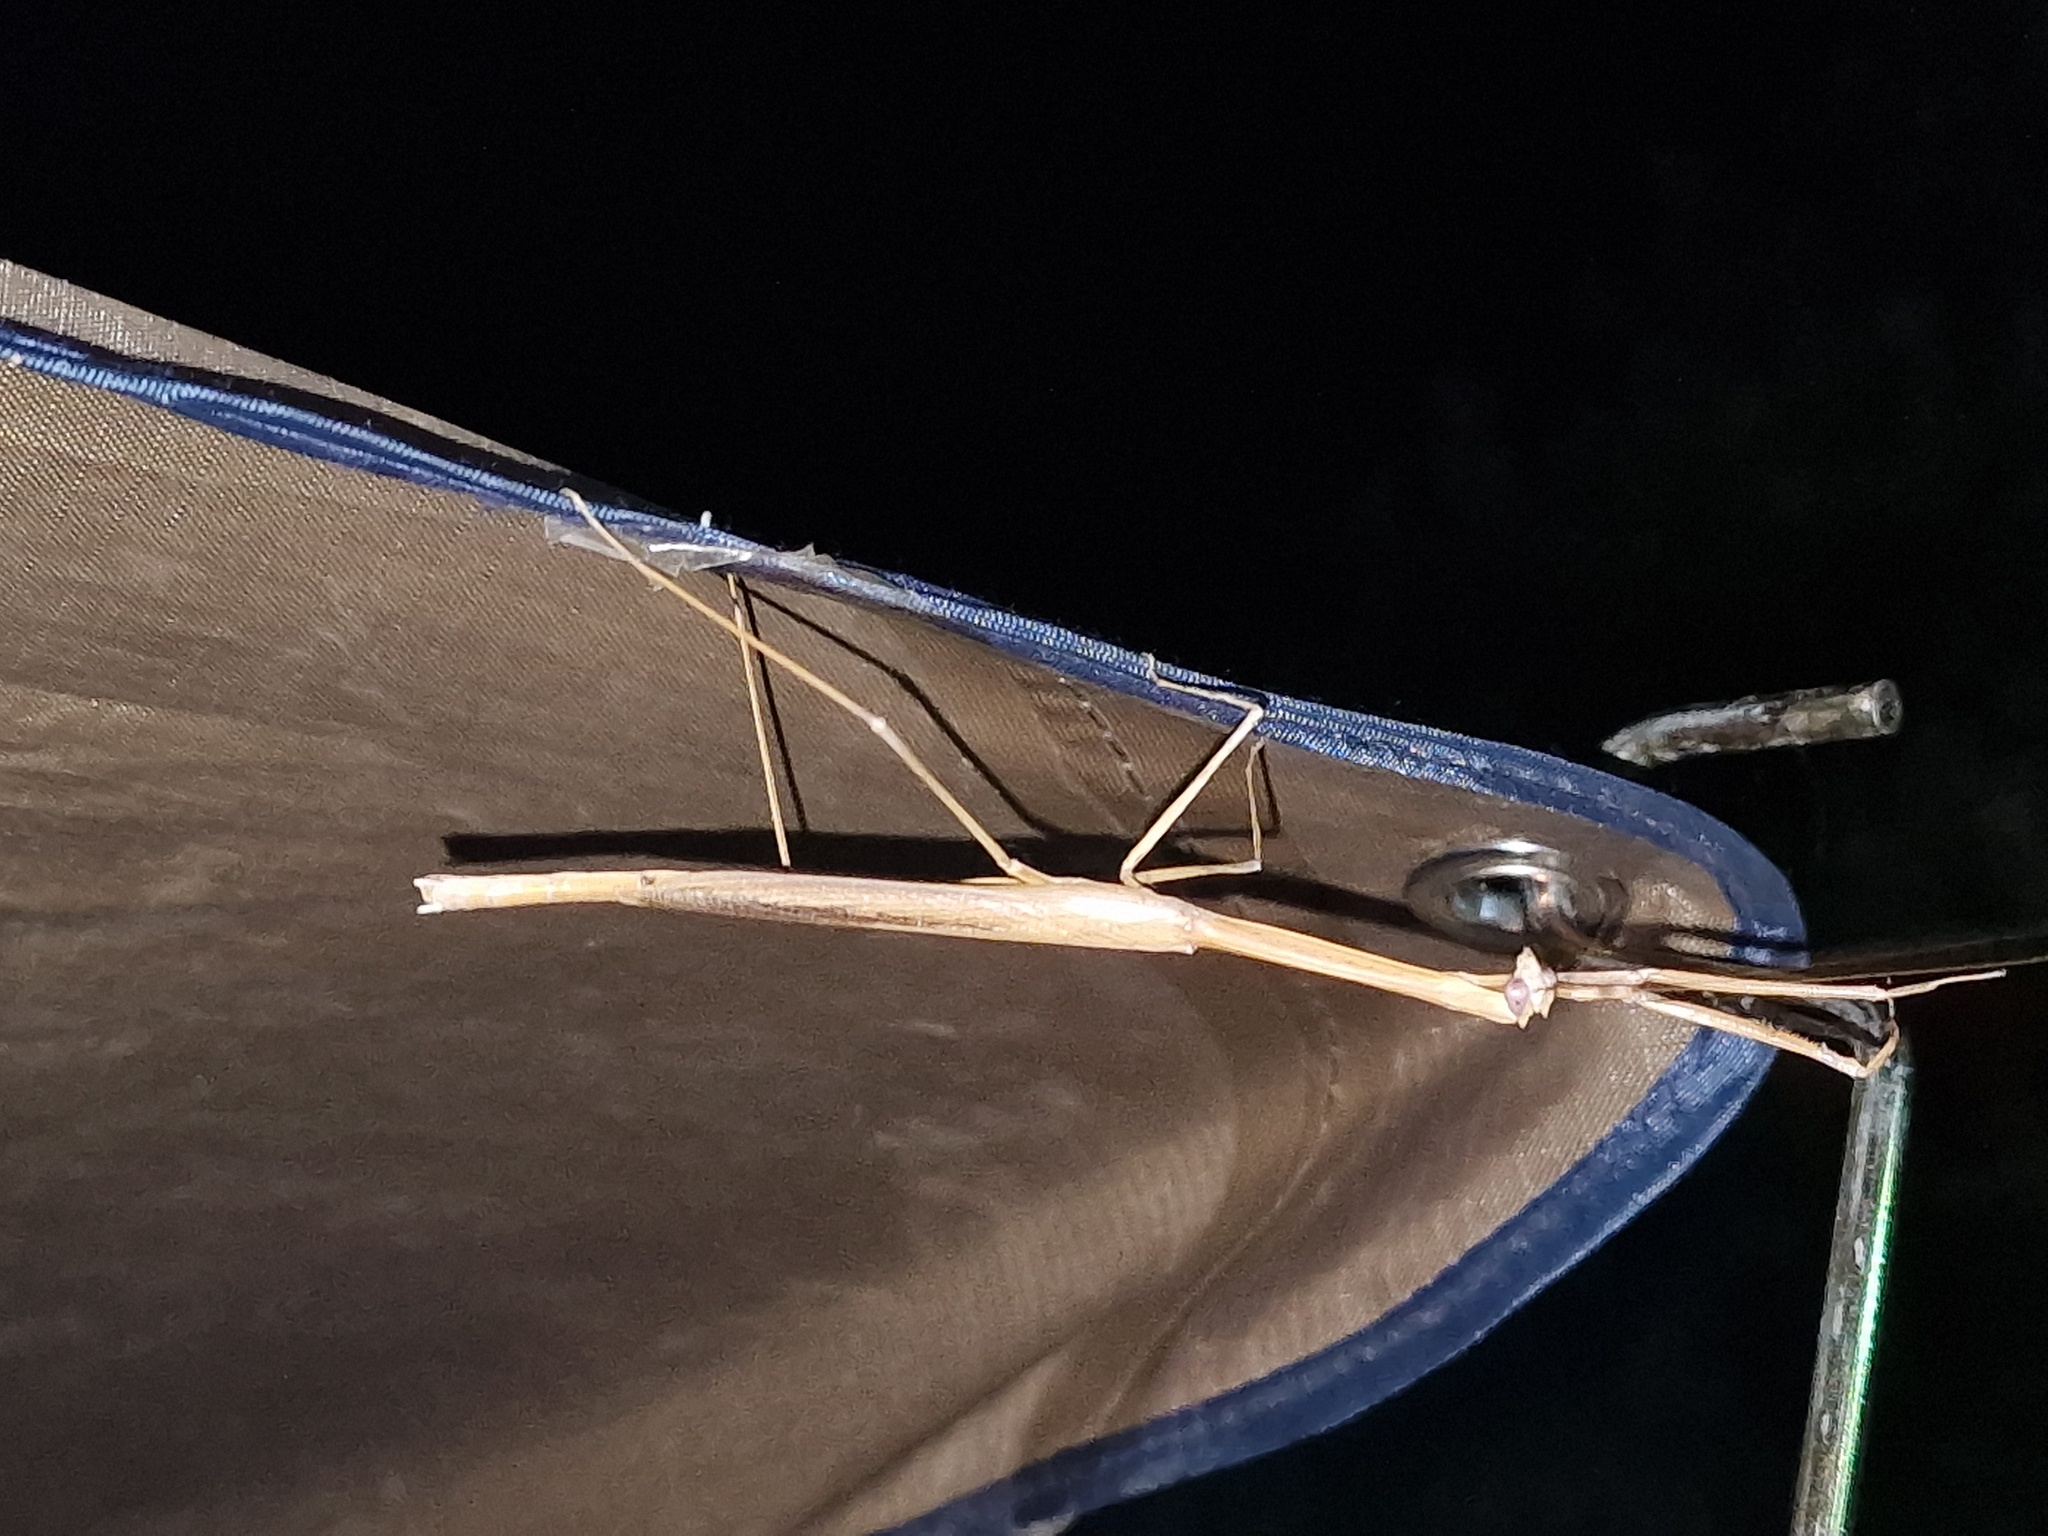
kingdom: Animalia
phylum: Arthropoda
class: Insecta
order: Mantodea
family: Deroplatyidae
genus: Neodanuria
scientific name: Neodanuria bolauana
